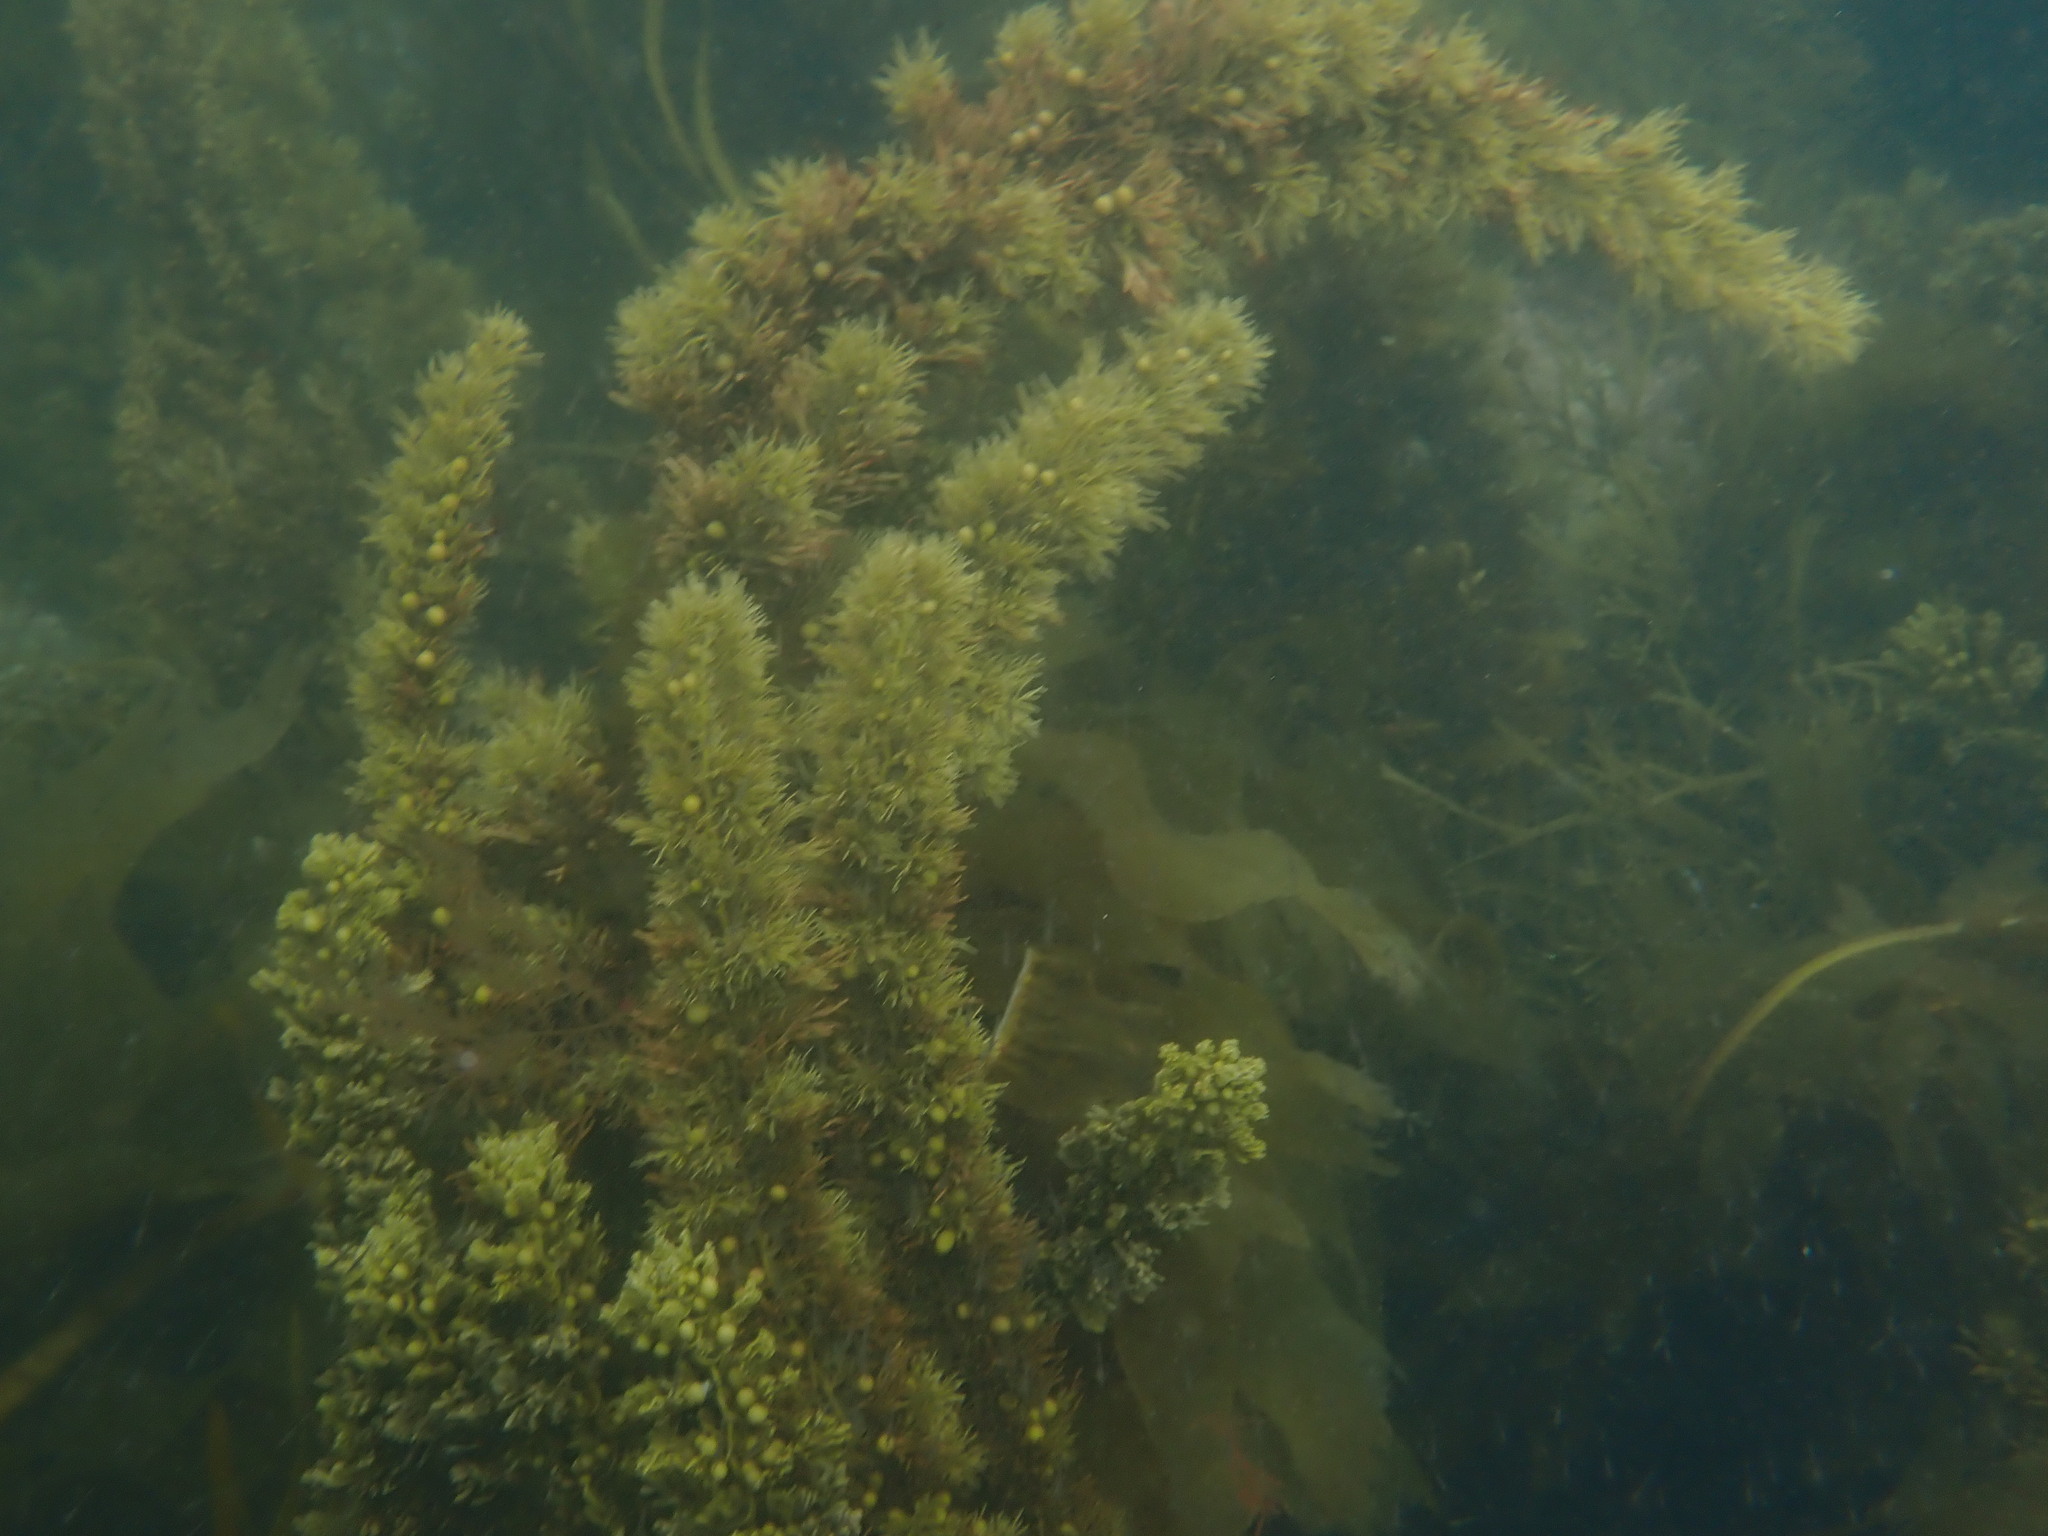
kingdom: Chromista
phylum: Ochrophyta
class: Phaeophyceae
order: Fucales
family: Sargassaceae
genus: Cystophora
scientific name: Cystophora retroflexa
